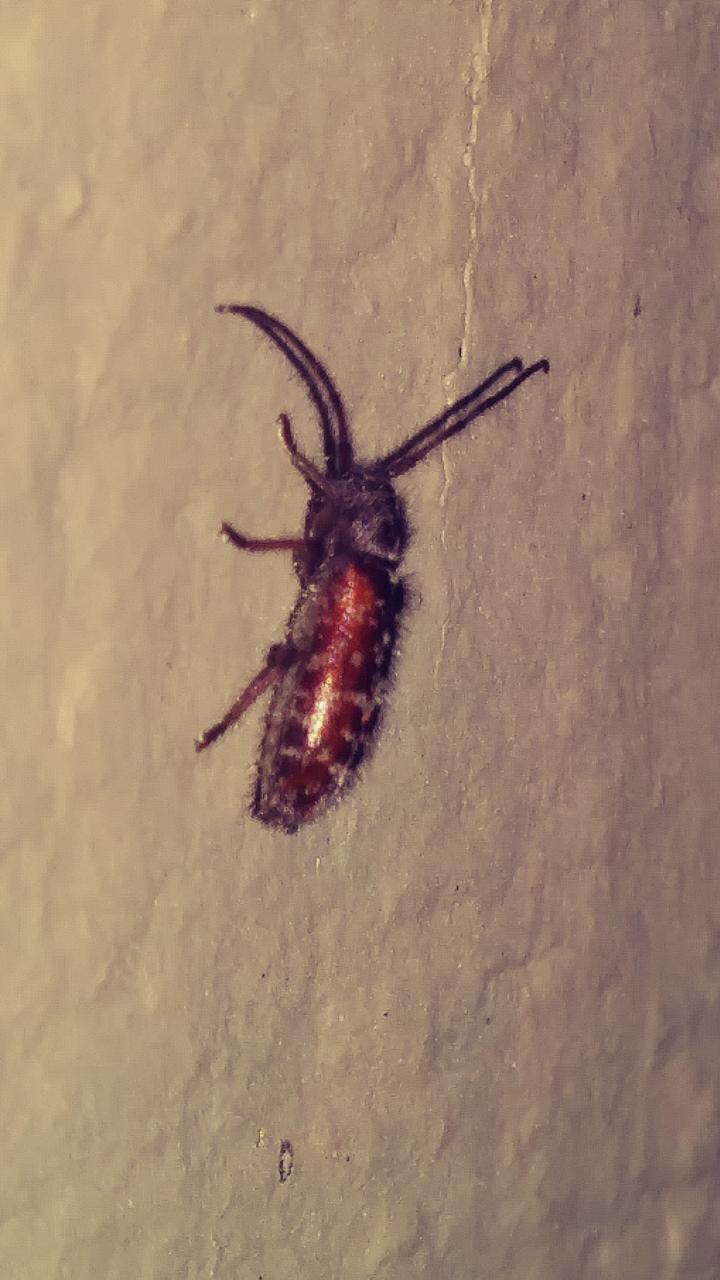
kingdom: Animalia
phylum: Arthropoda
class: Insecta
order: Coleoptera
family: Cerambycidae
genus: Eupogonius
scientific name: Eupogonius tomentosus
